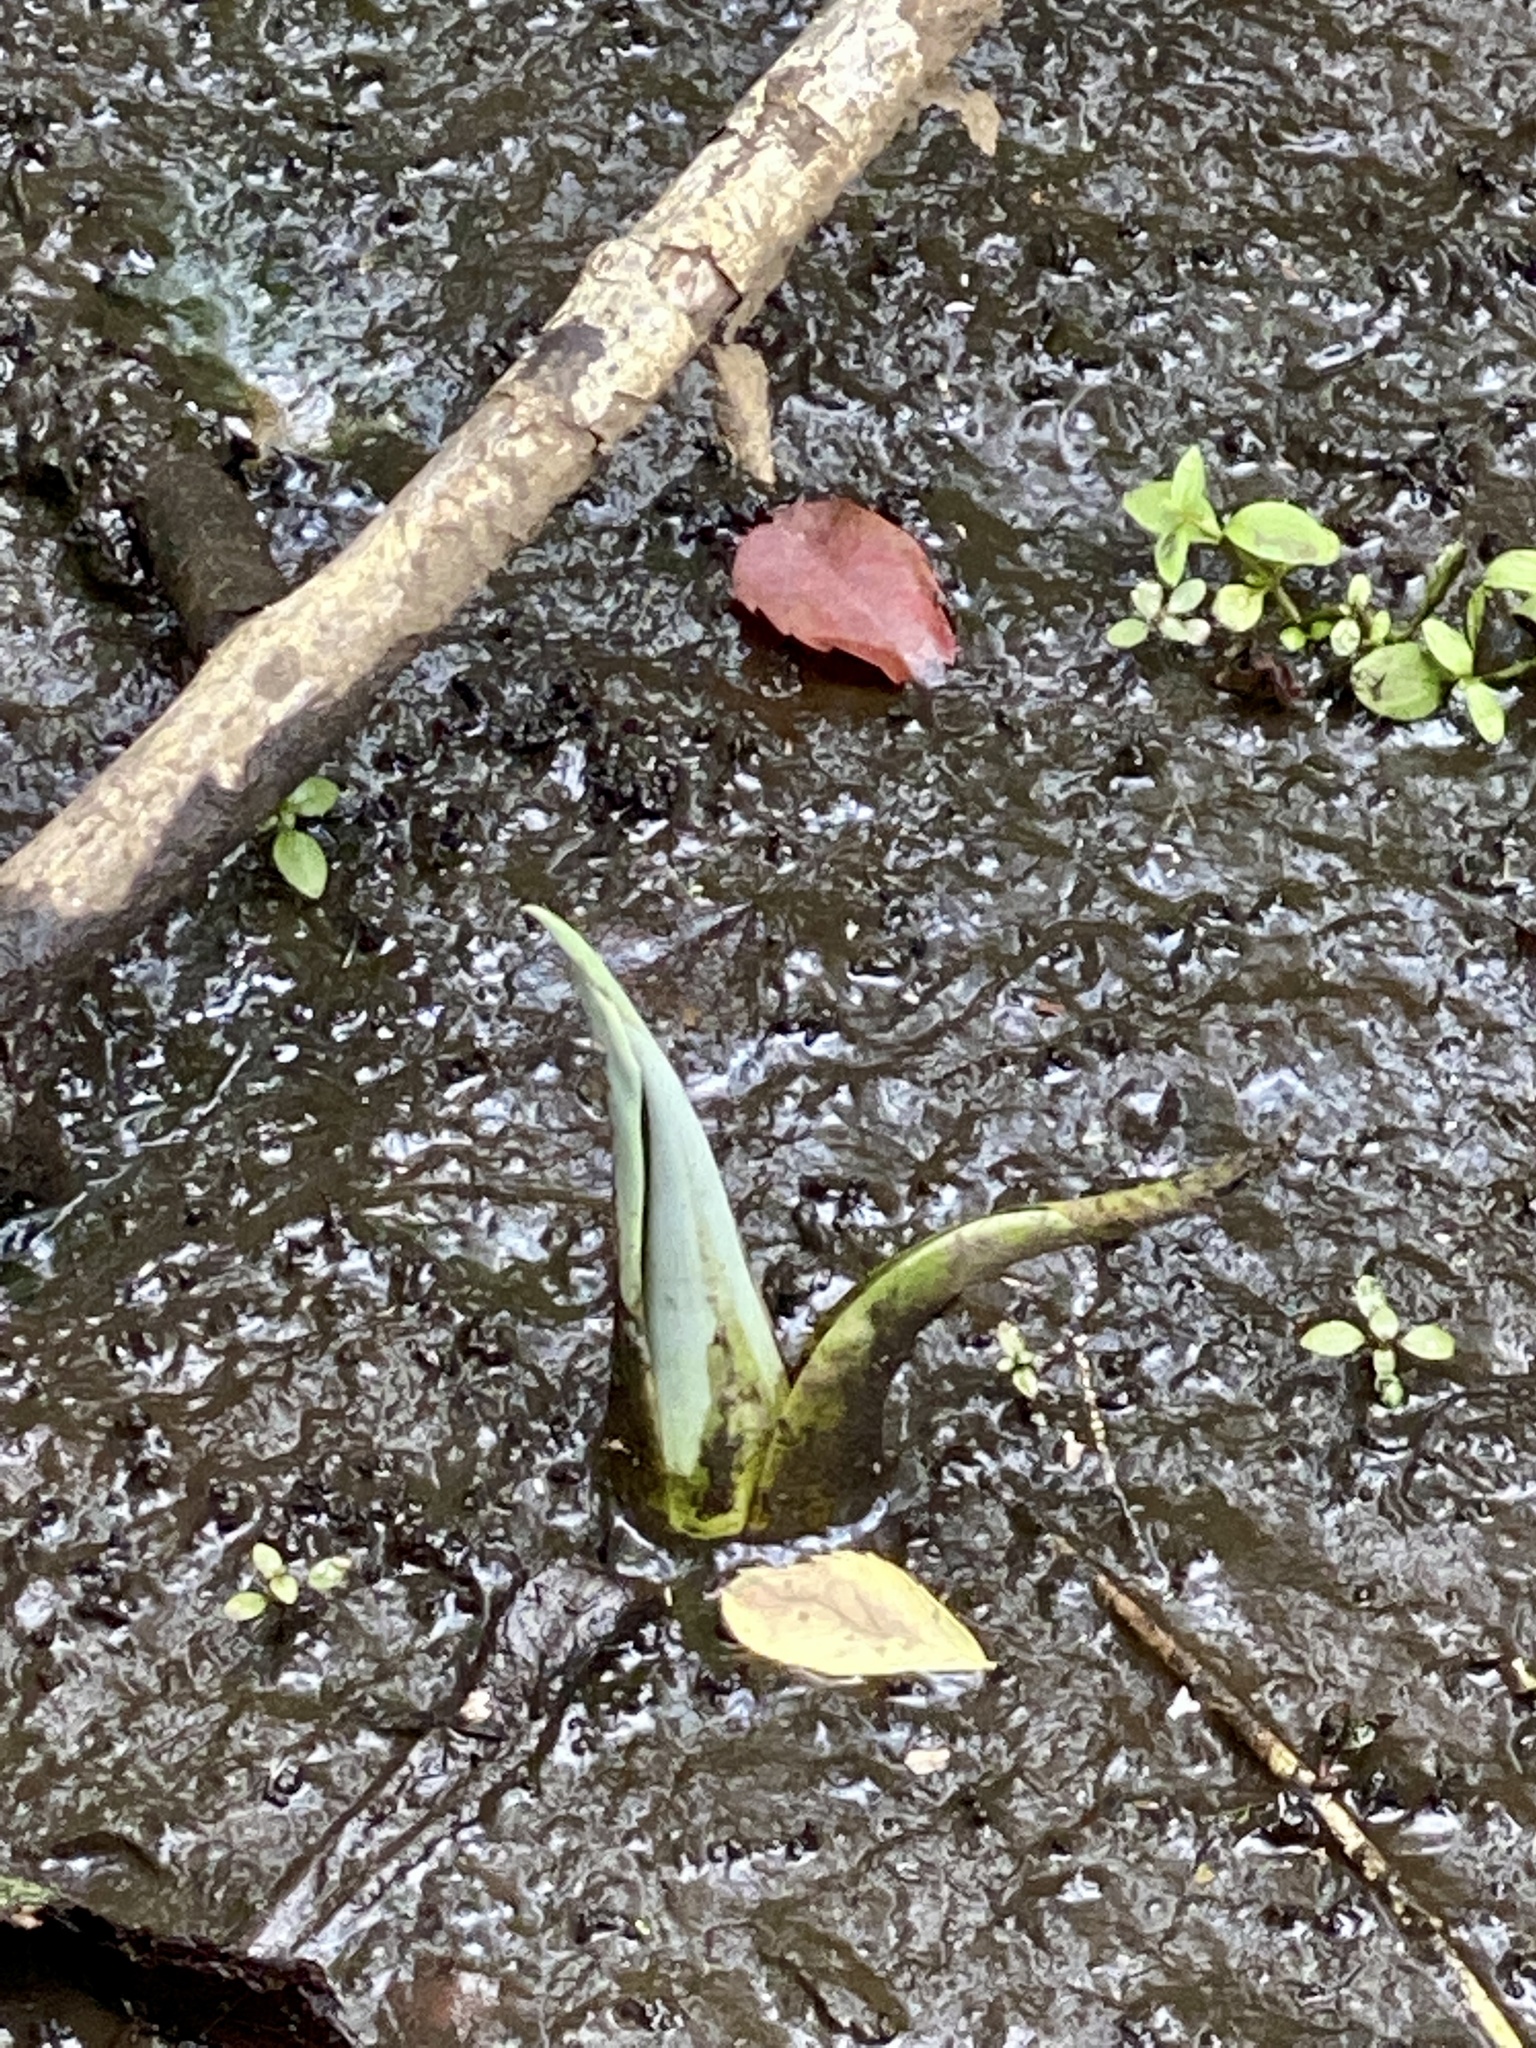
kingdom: Plantae
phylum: Tracheophyta
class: Liliopsida
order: Alismatales
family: Araceae
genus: Symplocarpus
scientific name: Symplocarpus foetidus
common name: Eastern skunk cabbage
